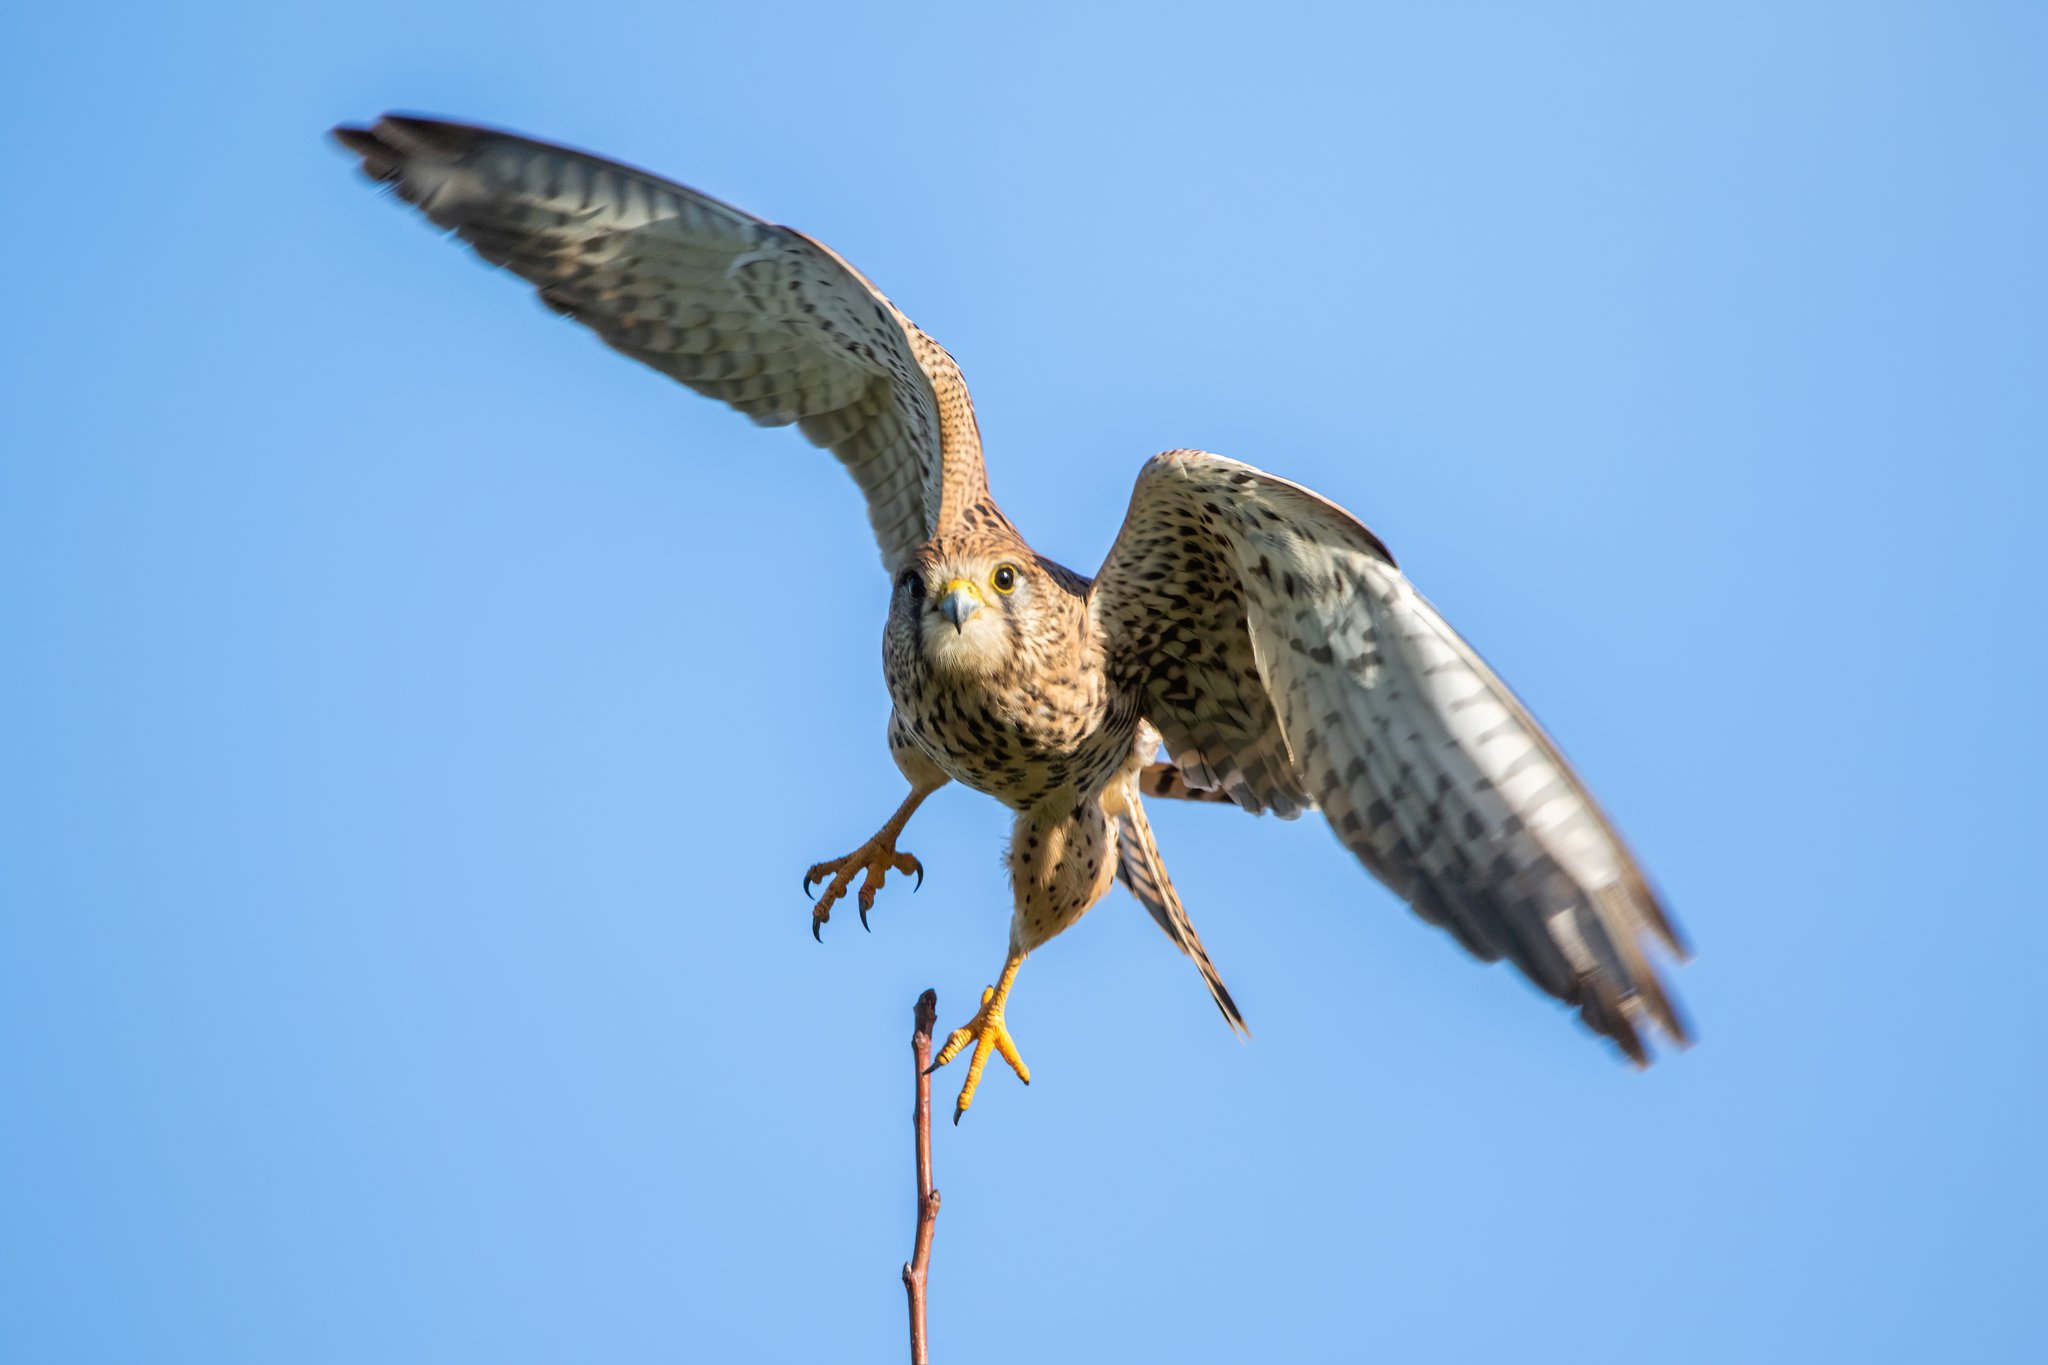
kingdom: Animalia
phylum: Chordata
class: Aves
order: Falconiformes
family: Falconidae
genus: Falco
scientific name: Falco tinnunculus
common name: Common kestrel
